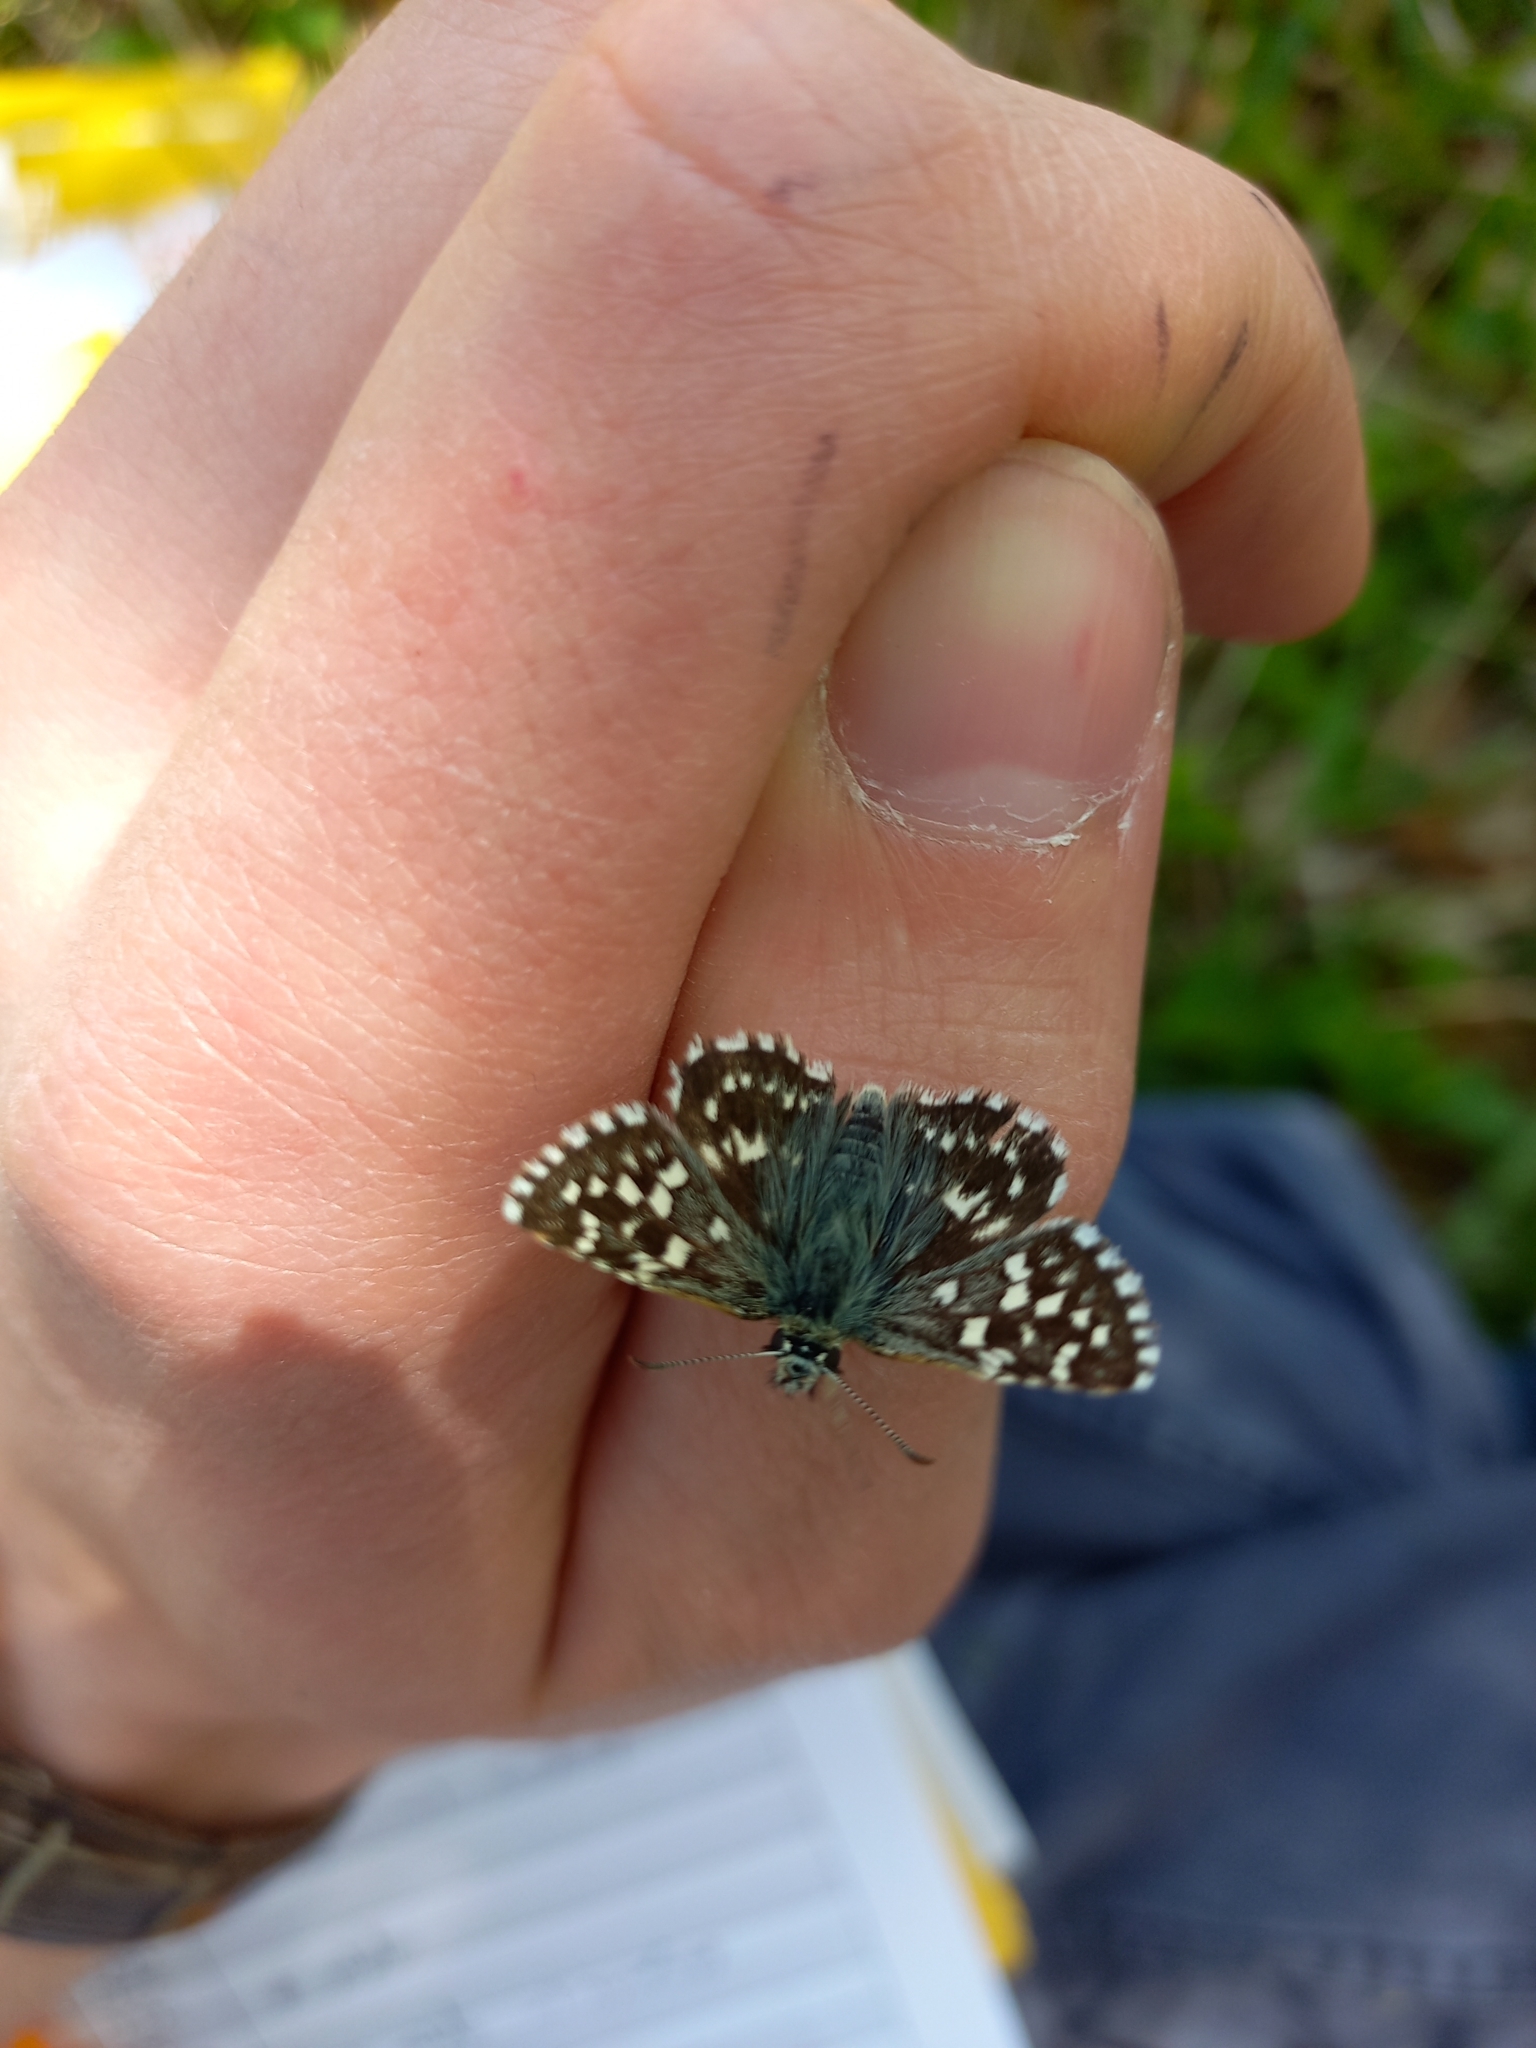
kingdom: Animalia
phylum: Arthropoda
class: Insecta
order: Lepidoptera
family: Hesperiidae
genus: Pyrgus
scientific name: Pyrgus malvae
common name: Grizzled skipper
